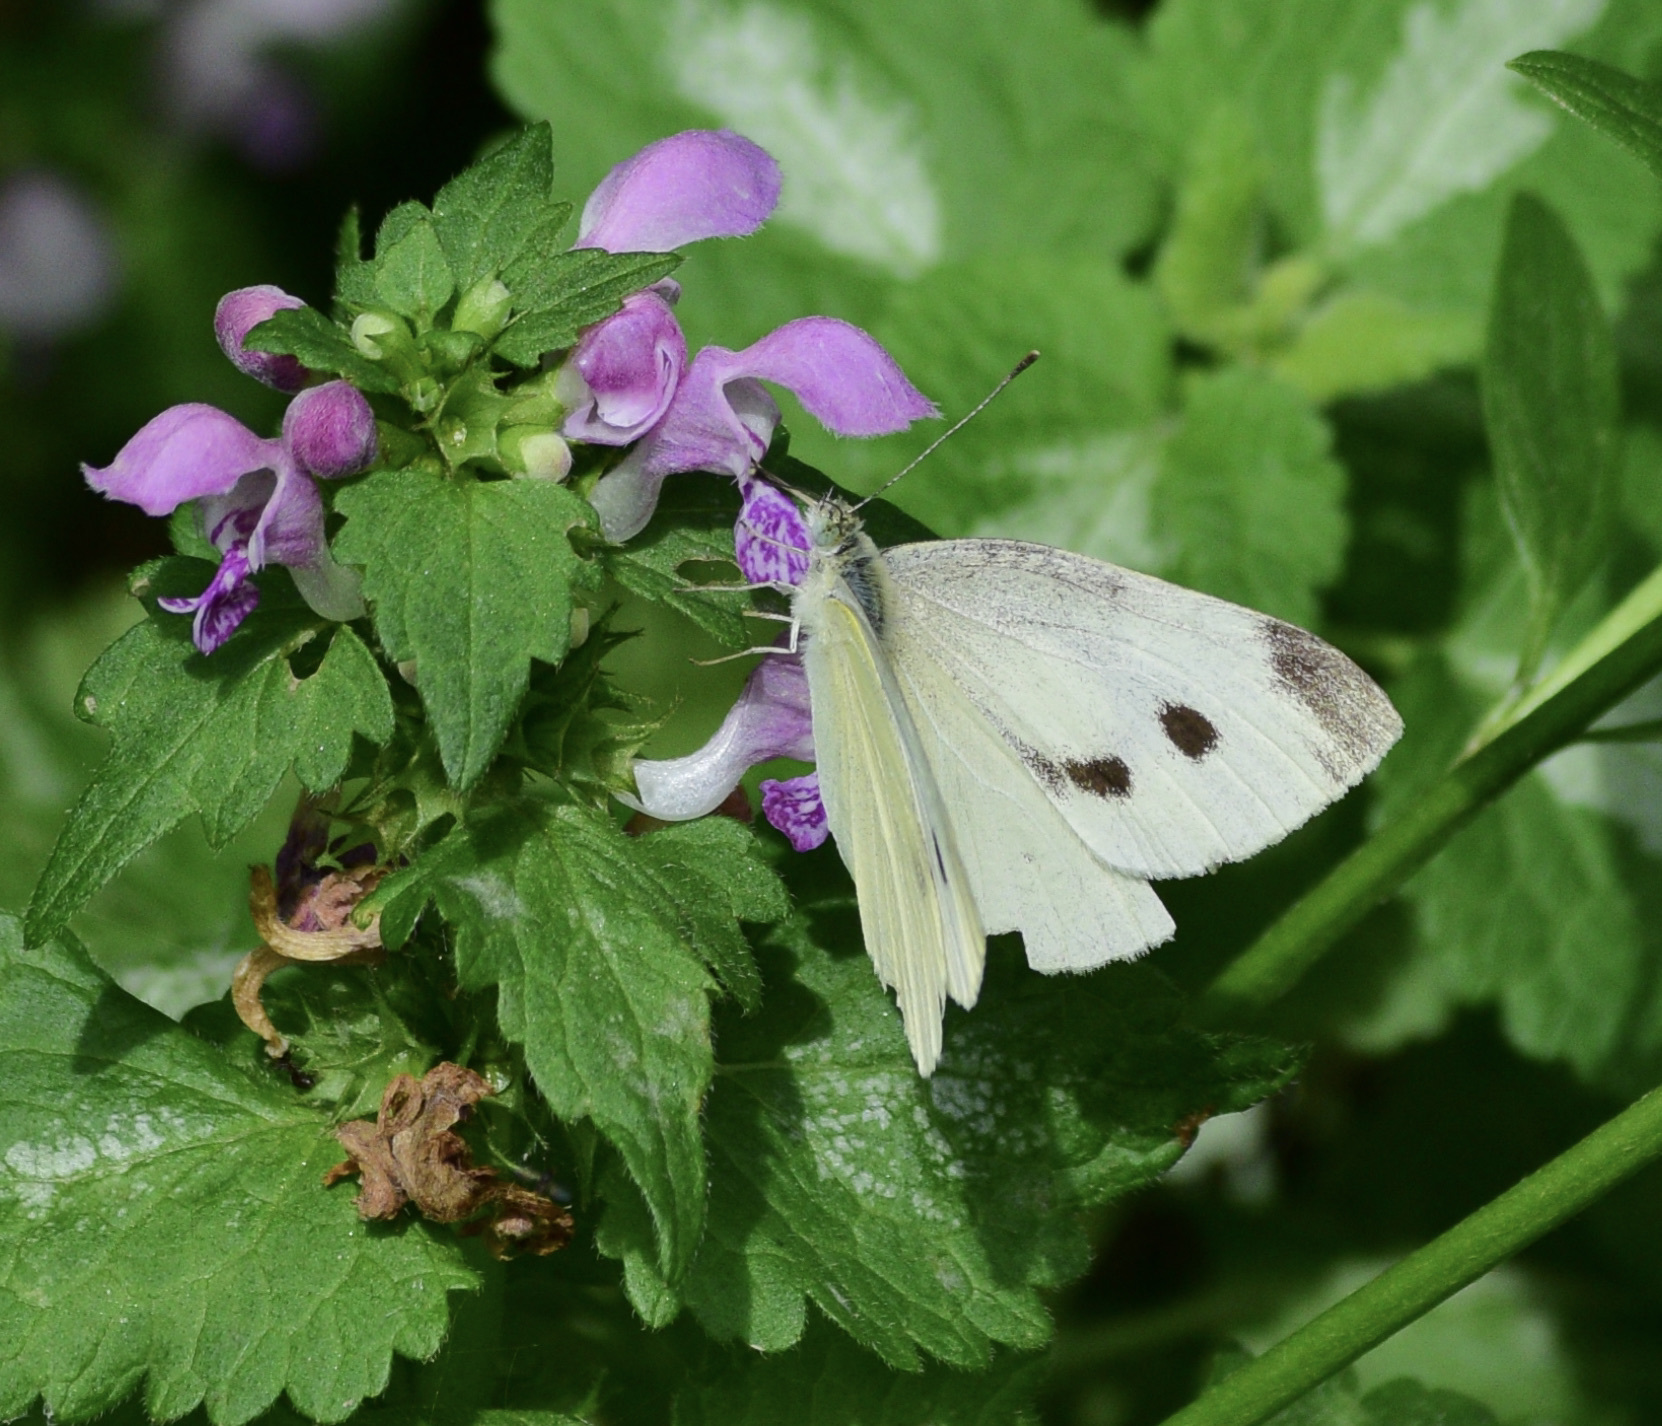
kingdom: Animalia
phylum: Arthropoda
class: Insecta
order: Lepidoptera
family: Pieridae
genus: Pieris
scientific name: Pieris rapae
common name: Small white
